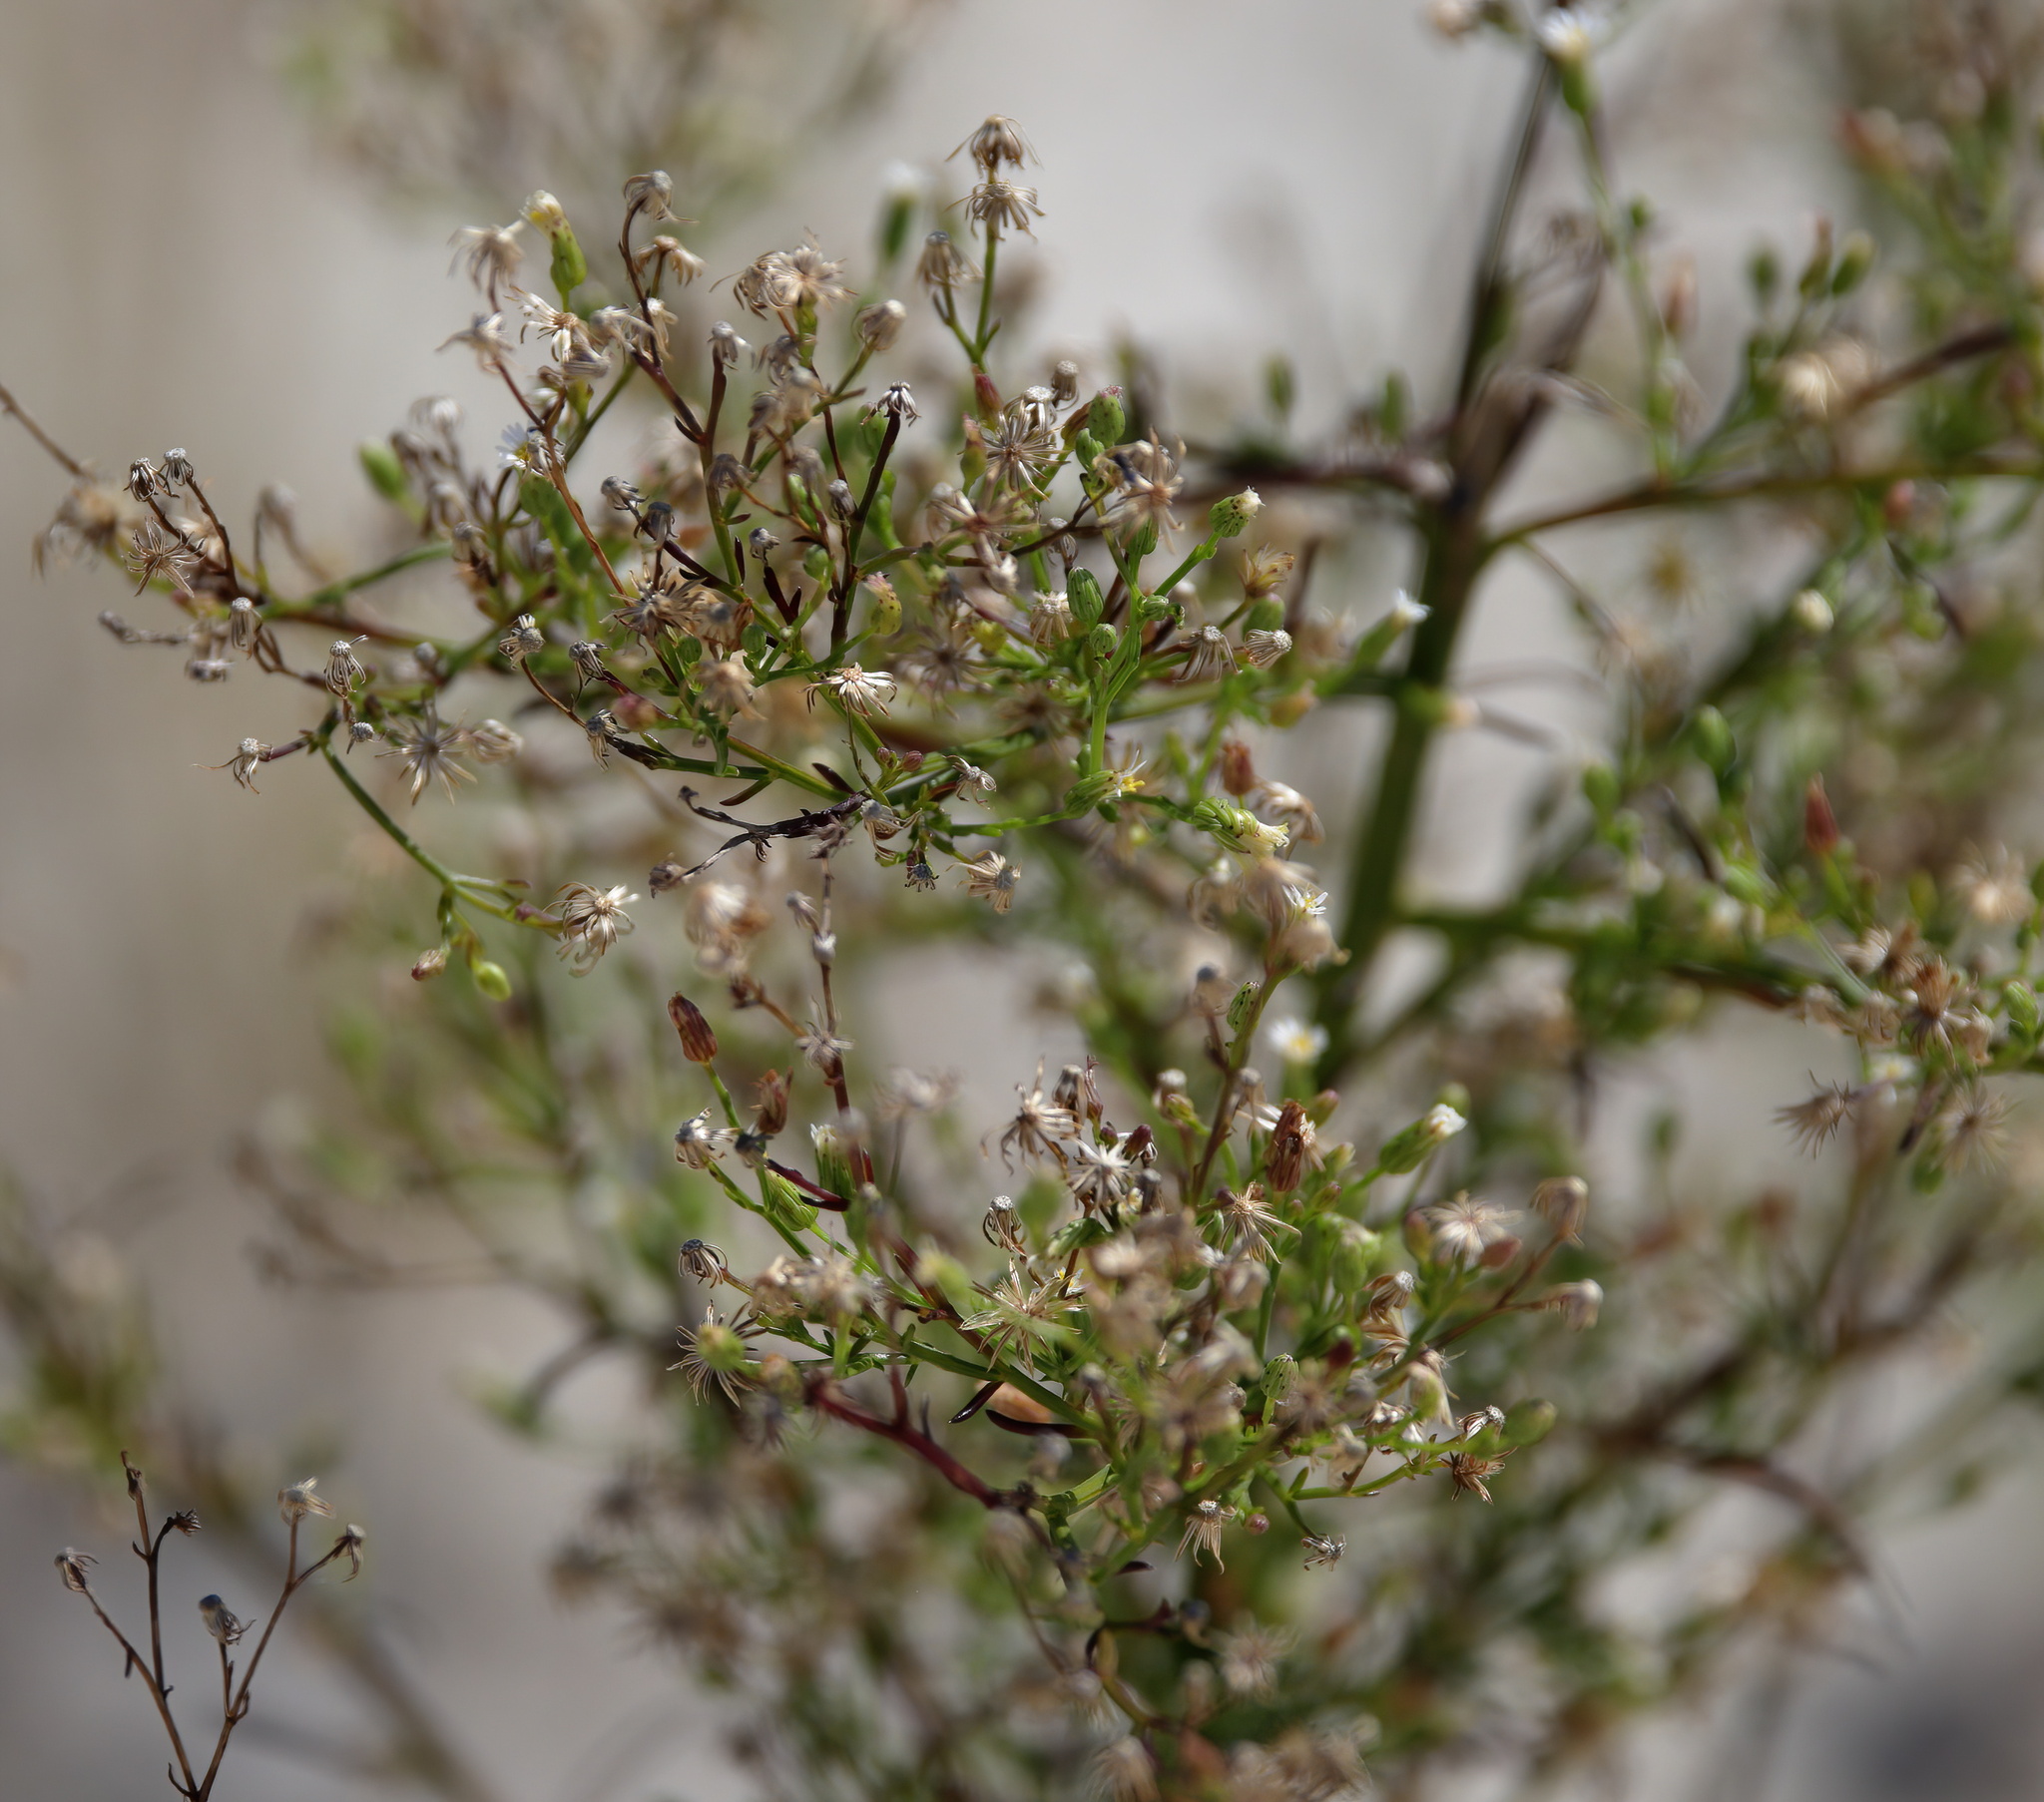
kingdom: Plantae
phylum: Tracheophyta
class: Magnoliopsida
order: Asterales
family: Asteraceae
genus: Erigeron
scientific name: Erigeron canadensis
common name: Canadian fleabane
